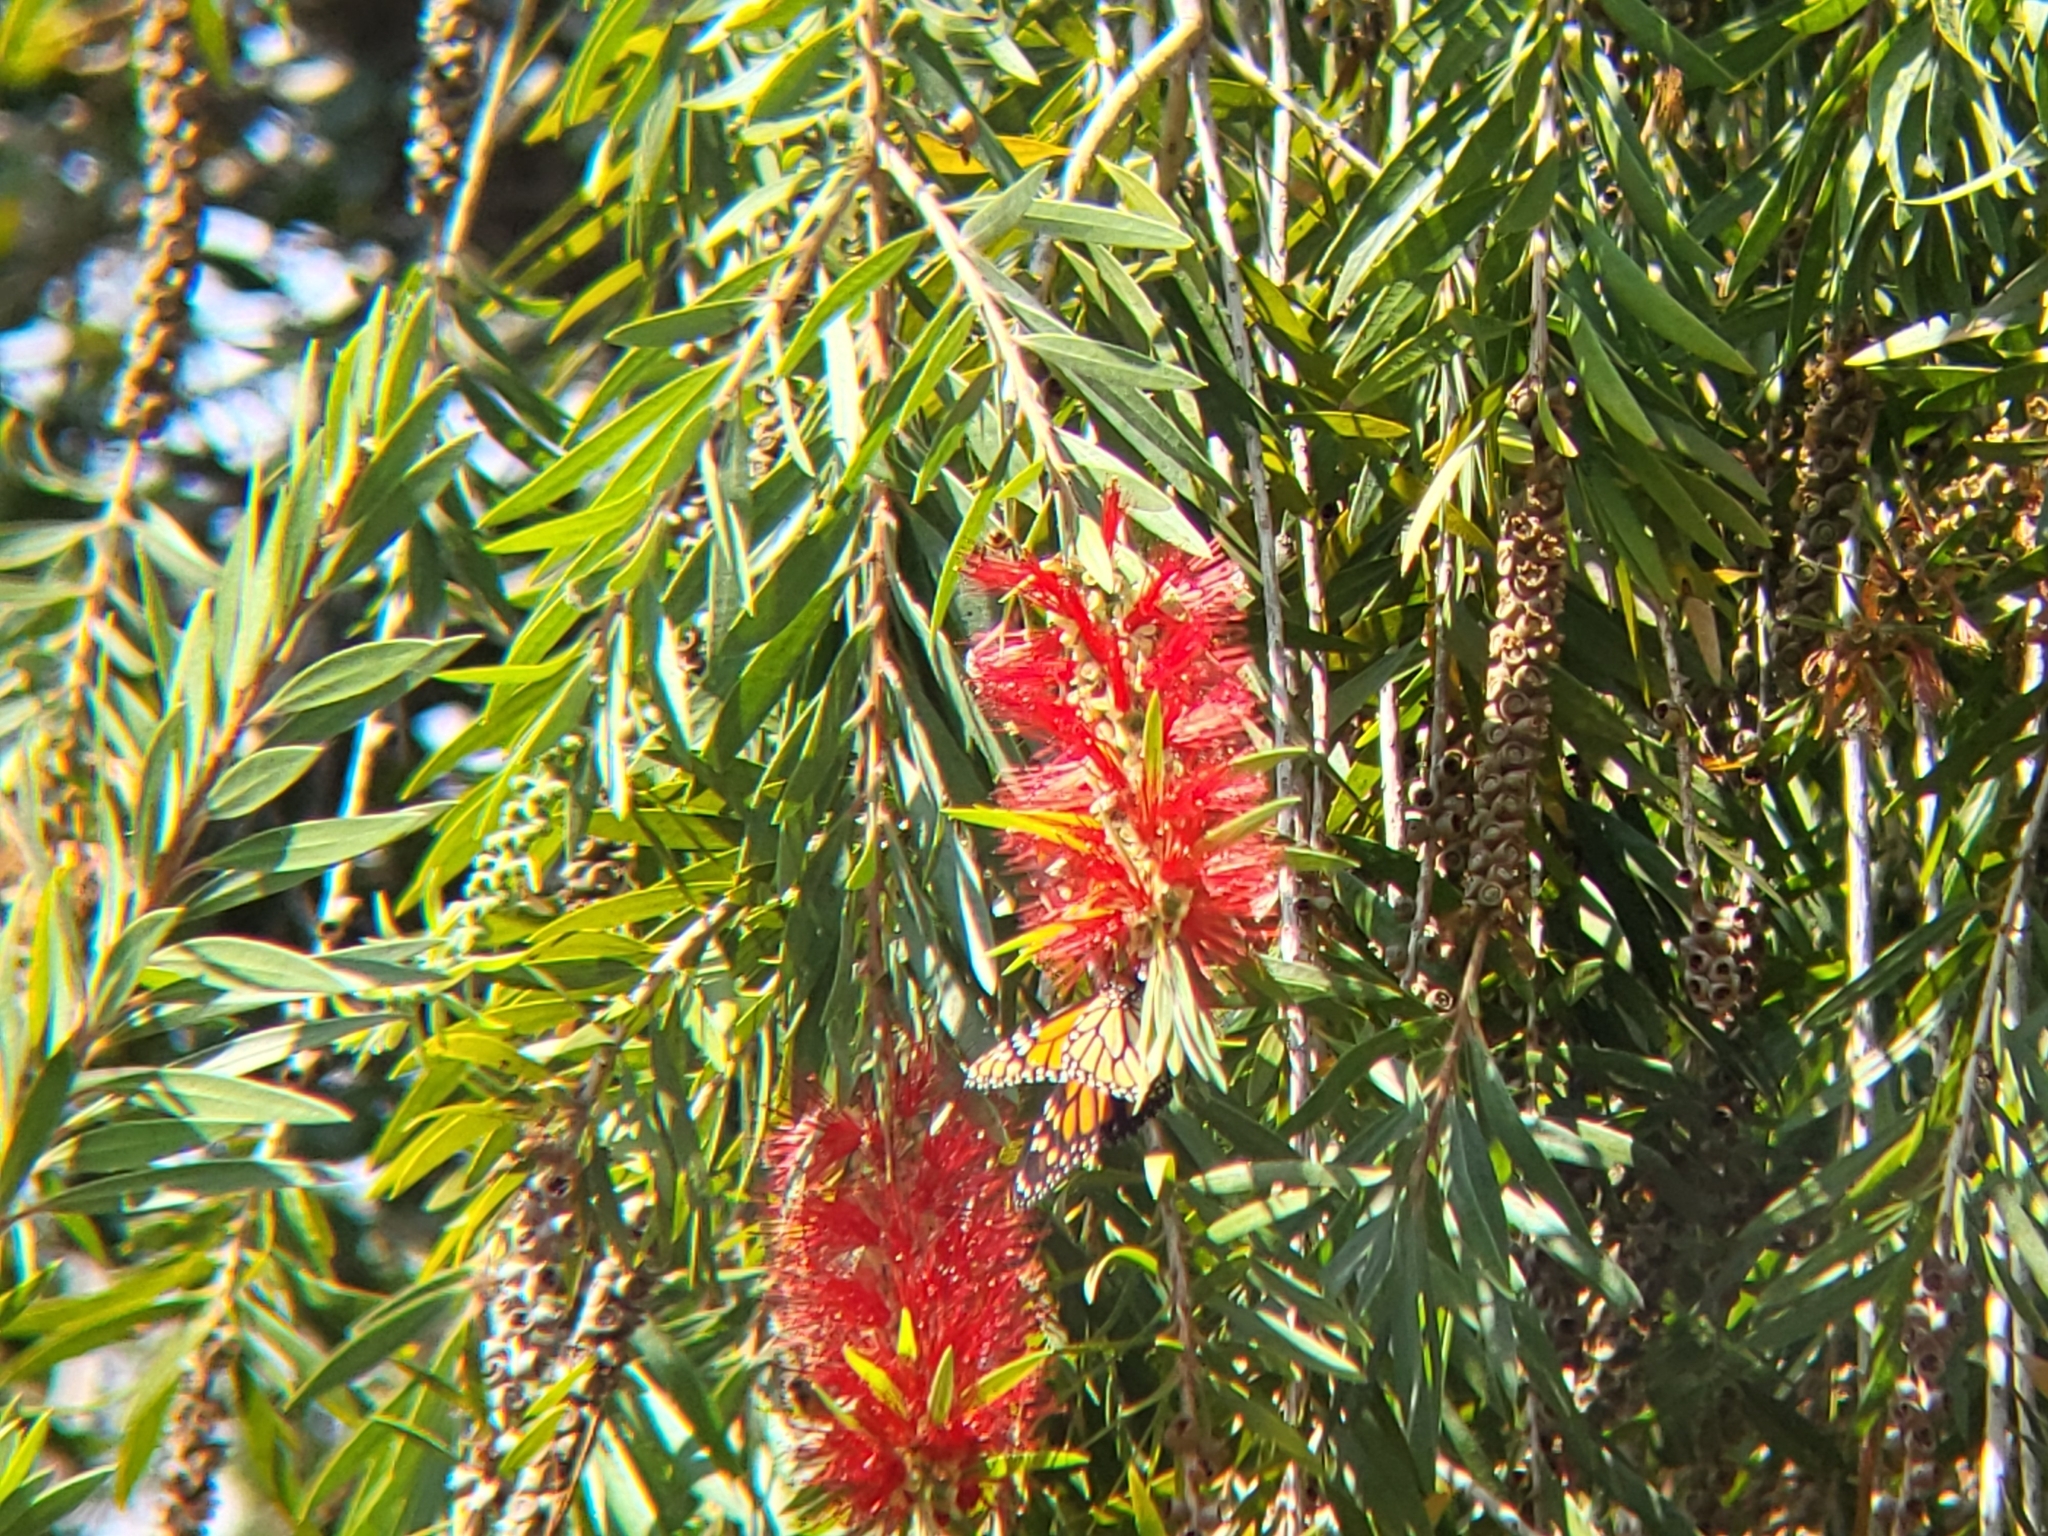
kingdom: Animalia
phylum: Arthropoda
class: Insecta
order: Lepidoptera
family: Nymphalidae
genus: Danaus
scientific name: Danaus plexippus
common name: Monarch
